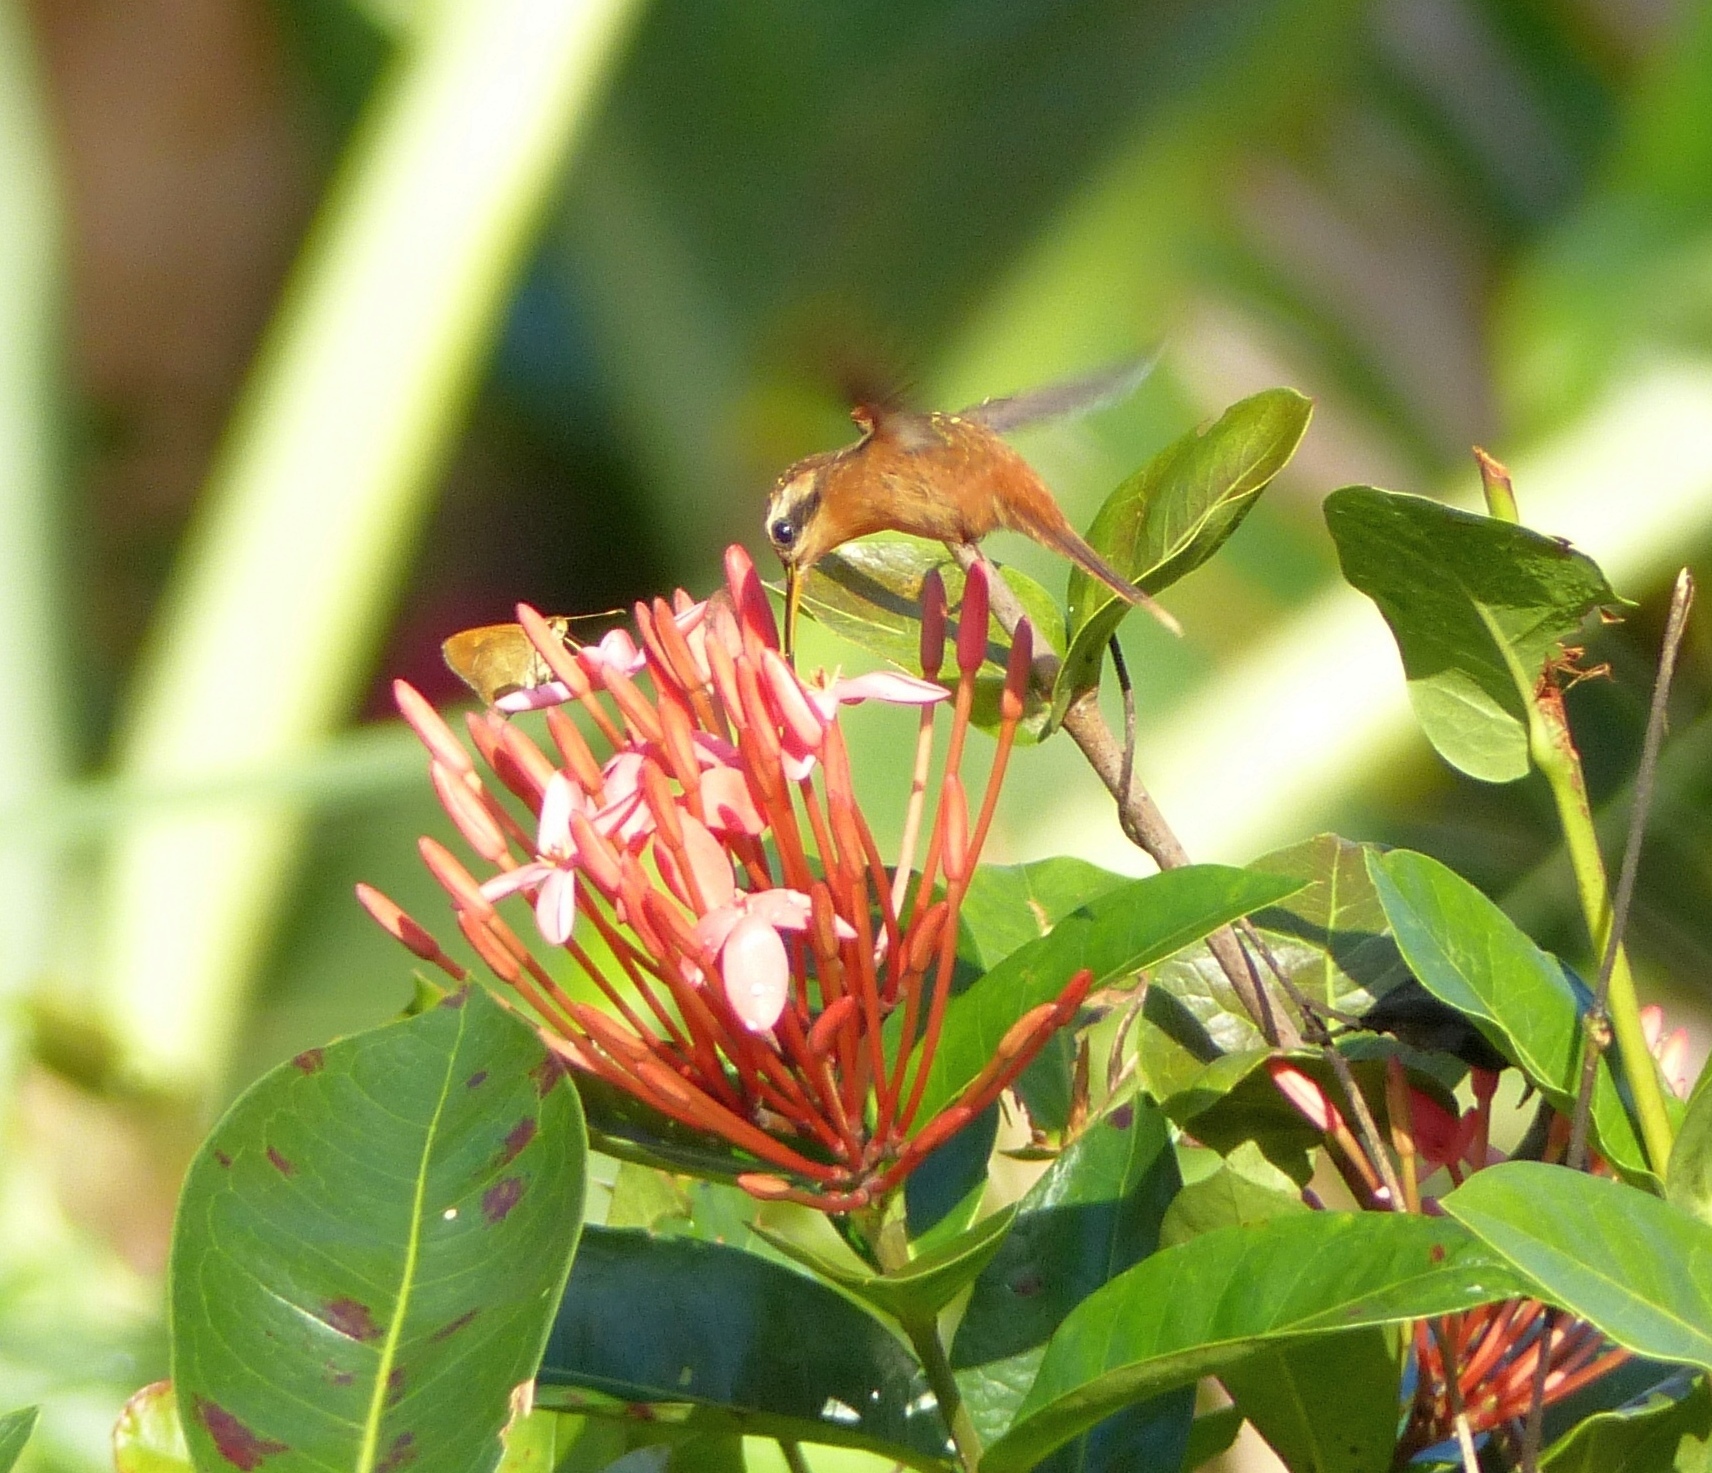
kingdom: Animalia
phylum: Chordata
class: Aves
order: Apodiformes
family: Trochilidae
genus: Phaethornis
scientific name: Phaethornis ruber
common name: Reddish hermit
